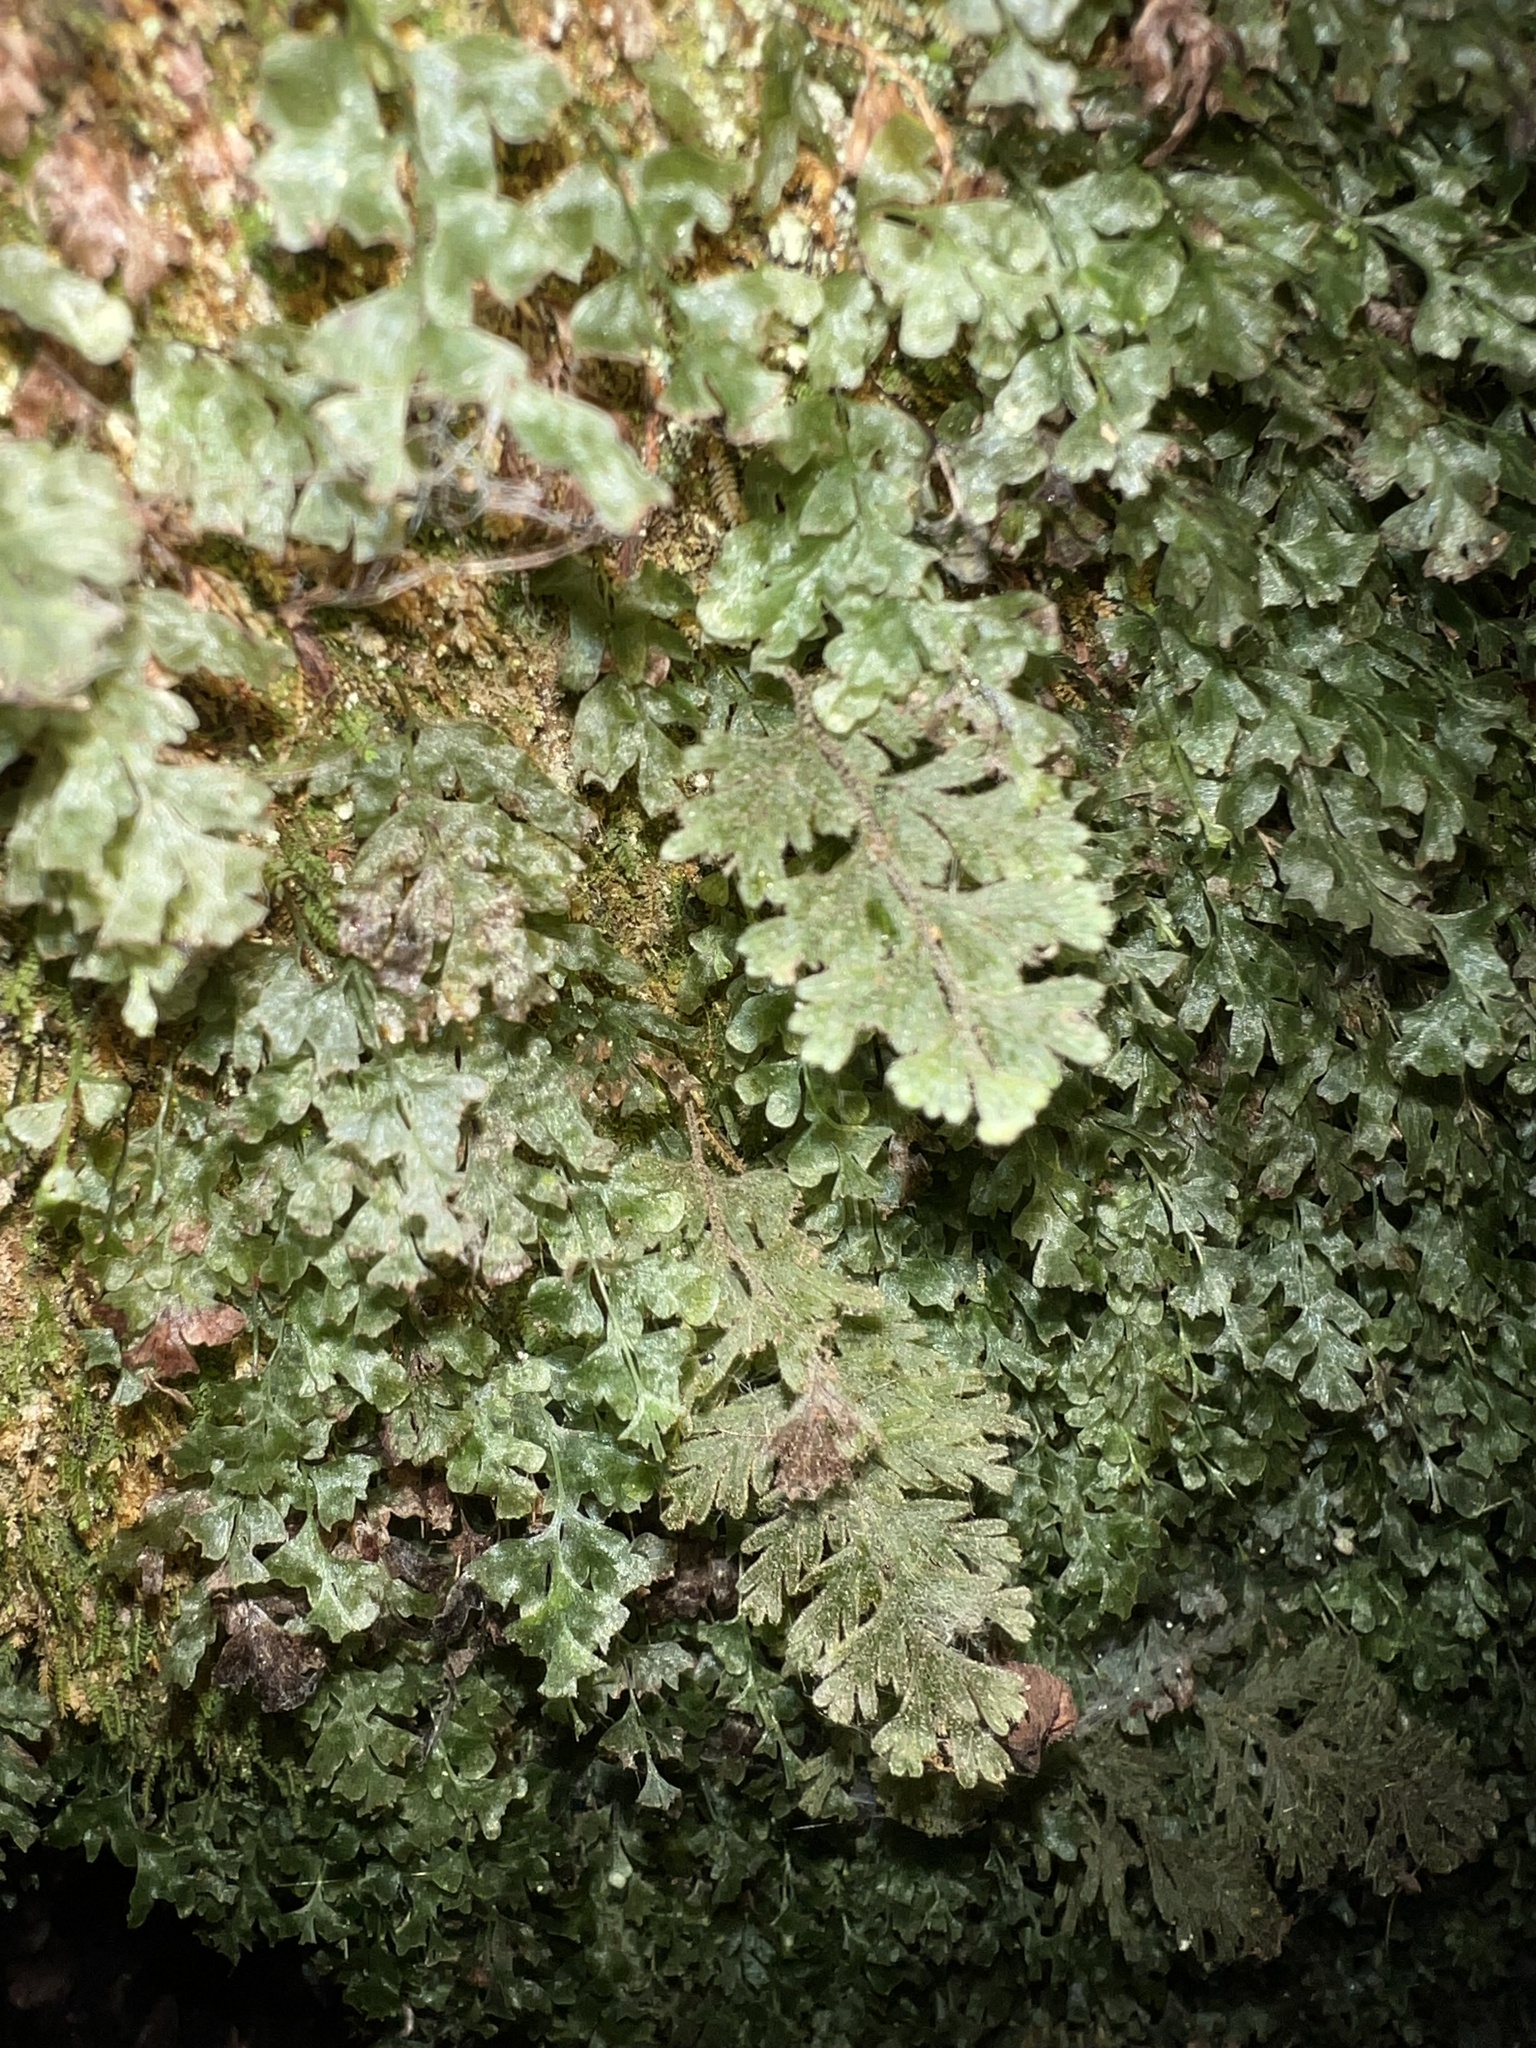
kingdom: Plantae
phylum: Tracheophyta
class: Polypodiopsida
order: Hymenophyllales
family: Hymenophyllaceae
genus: Hymenophyllum
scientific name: Hymenophyllum frankliniae
